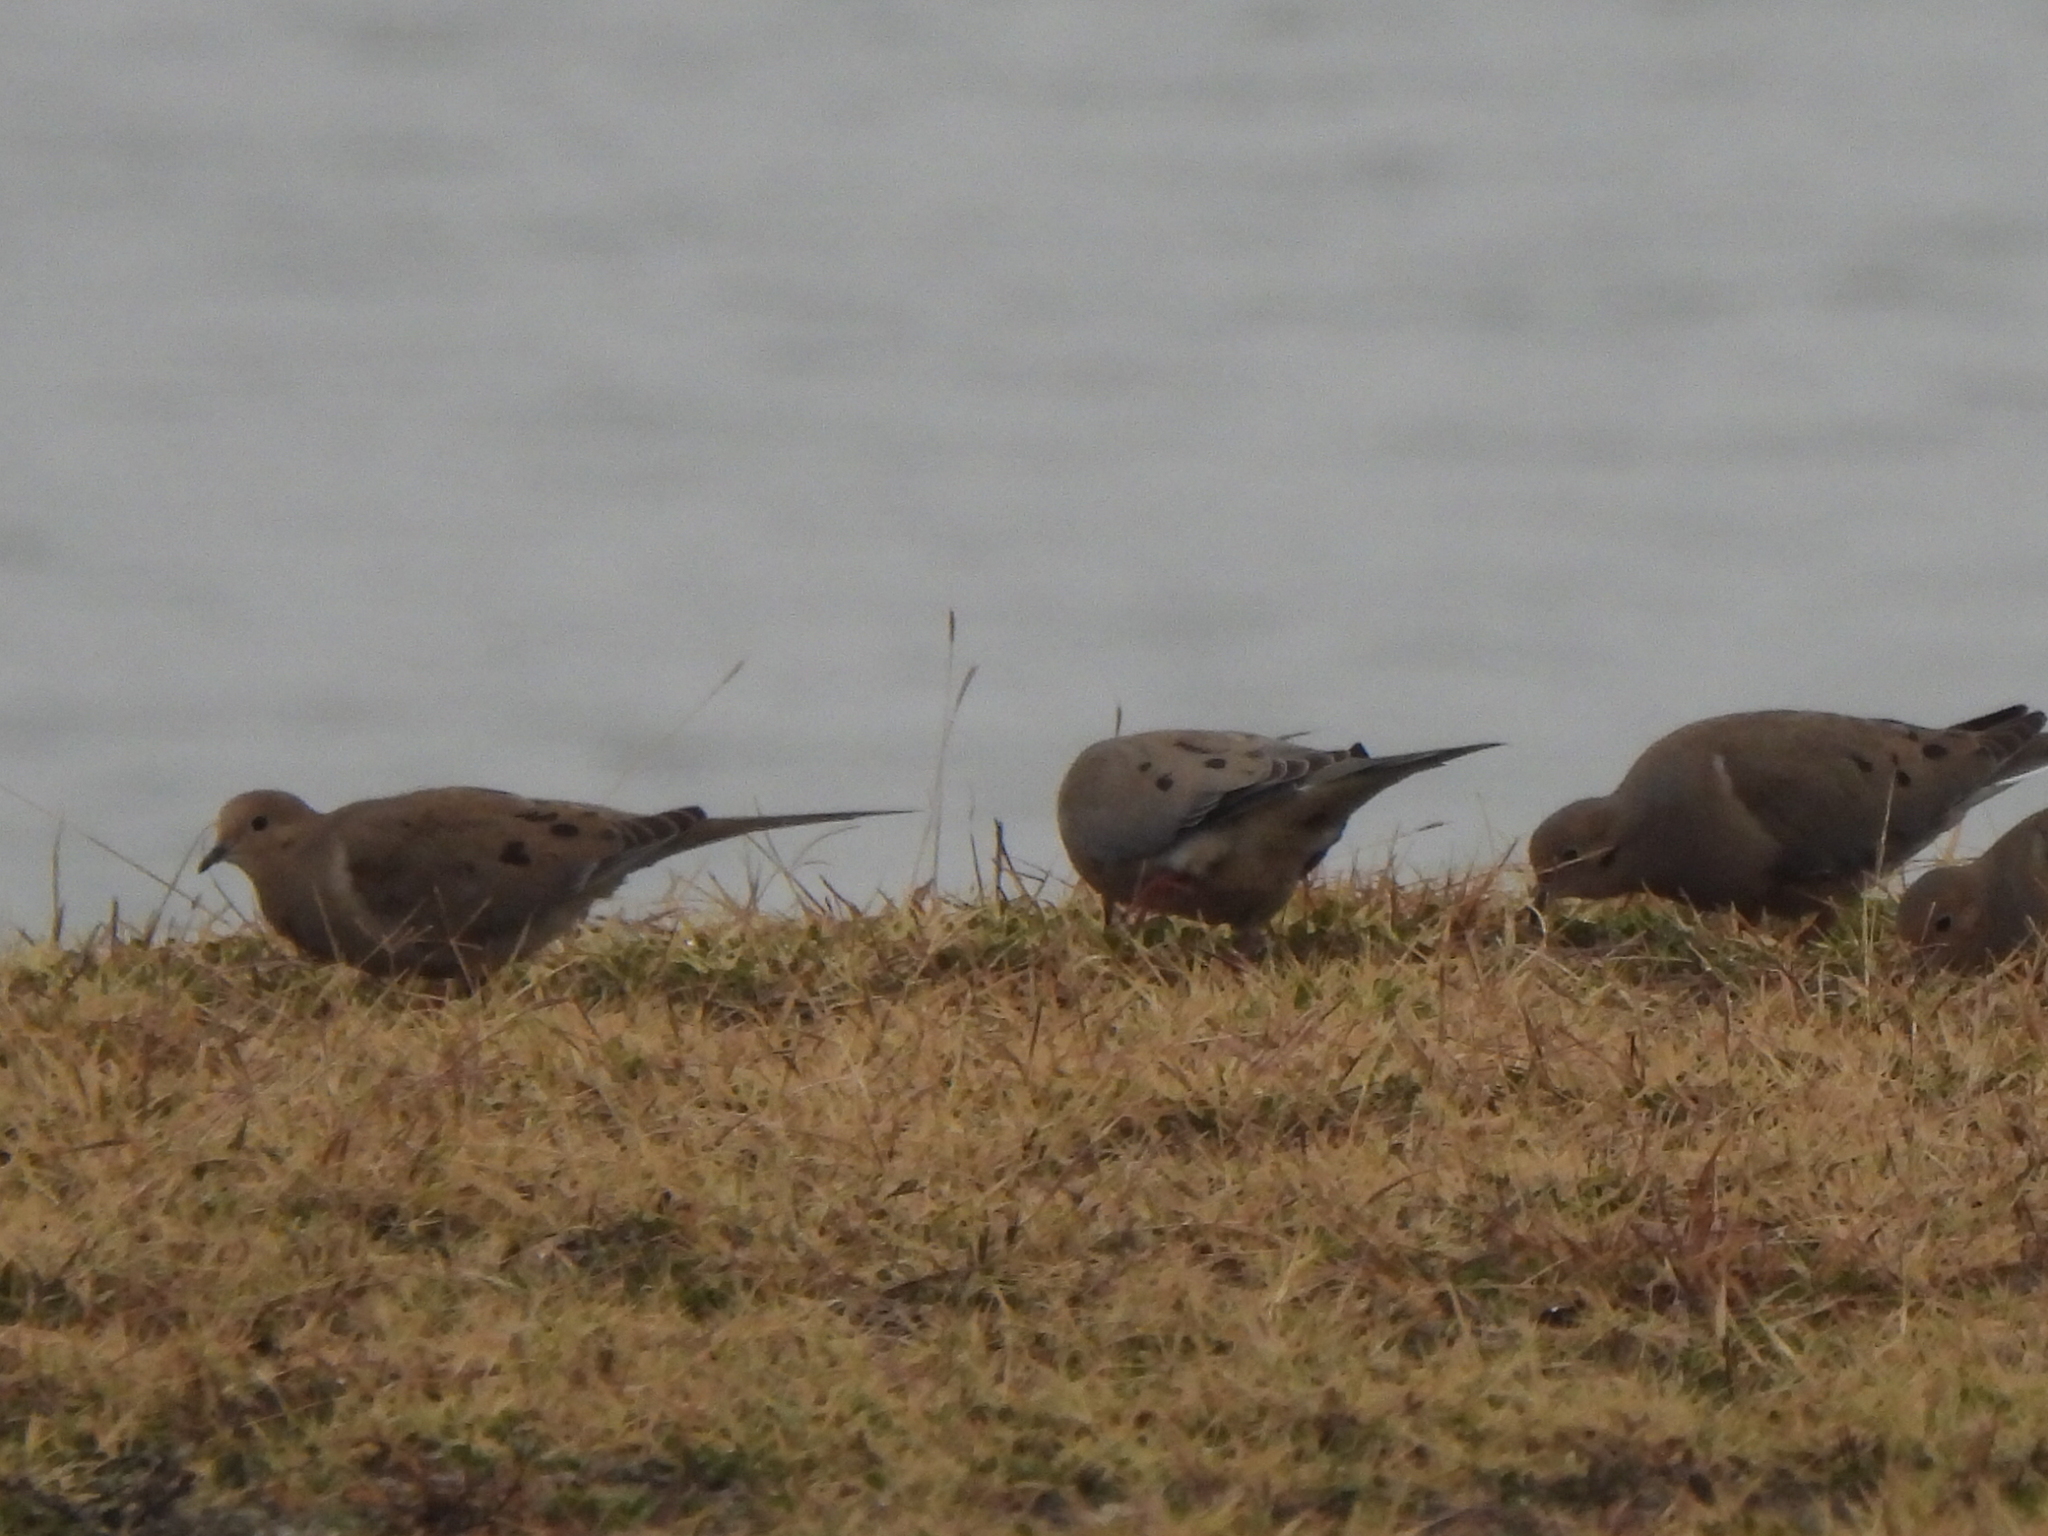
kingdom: Animalia
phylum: Chordata
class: Aves
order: Columbiformes
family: Columbidae
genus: Zenaida
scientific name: Zenaida macroura
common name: Mourning dove
